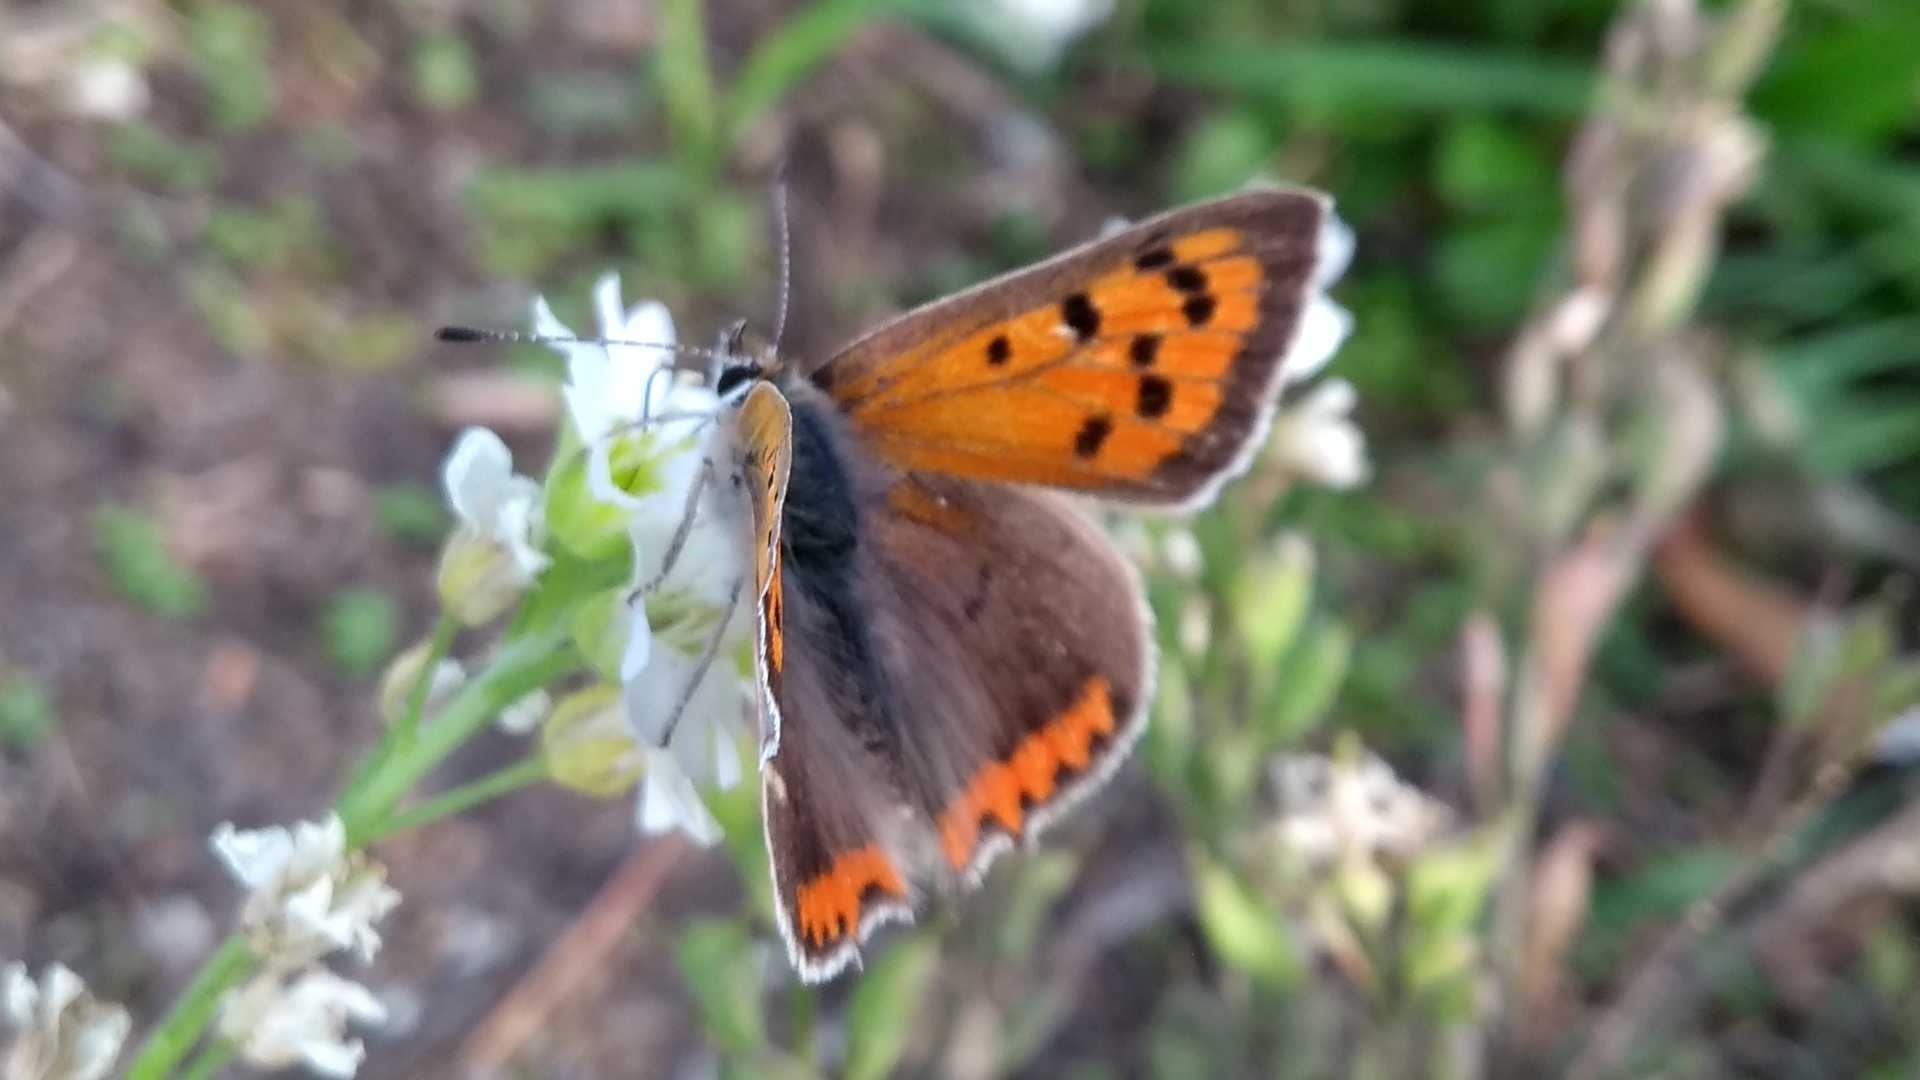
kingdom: Animalia
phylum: Arthropoda
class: Insecta
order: Lepidoptera
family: Lycaenidae
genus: Lycaena
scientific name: Lycaena phlaeas
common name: Small copper
